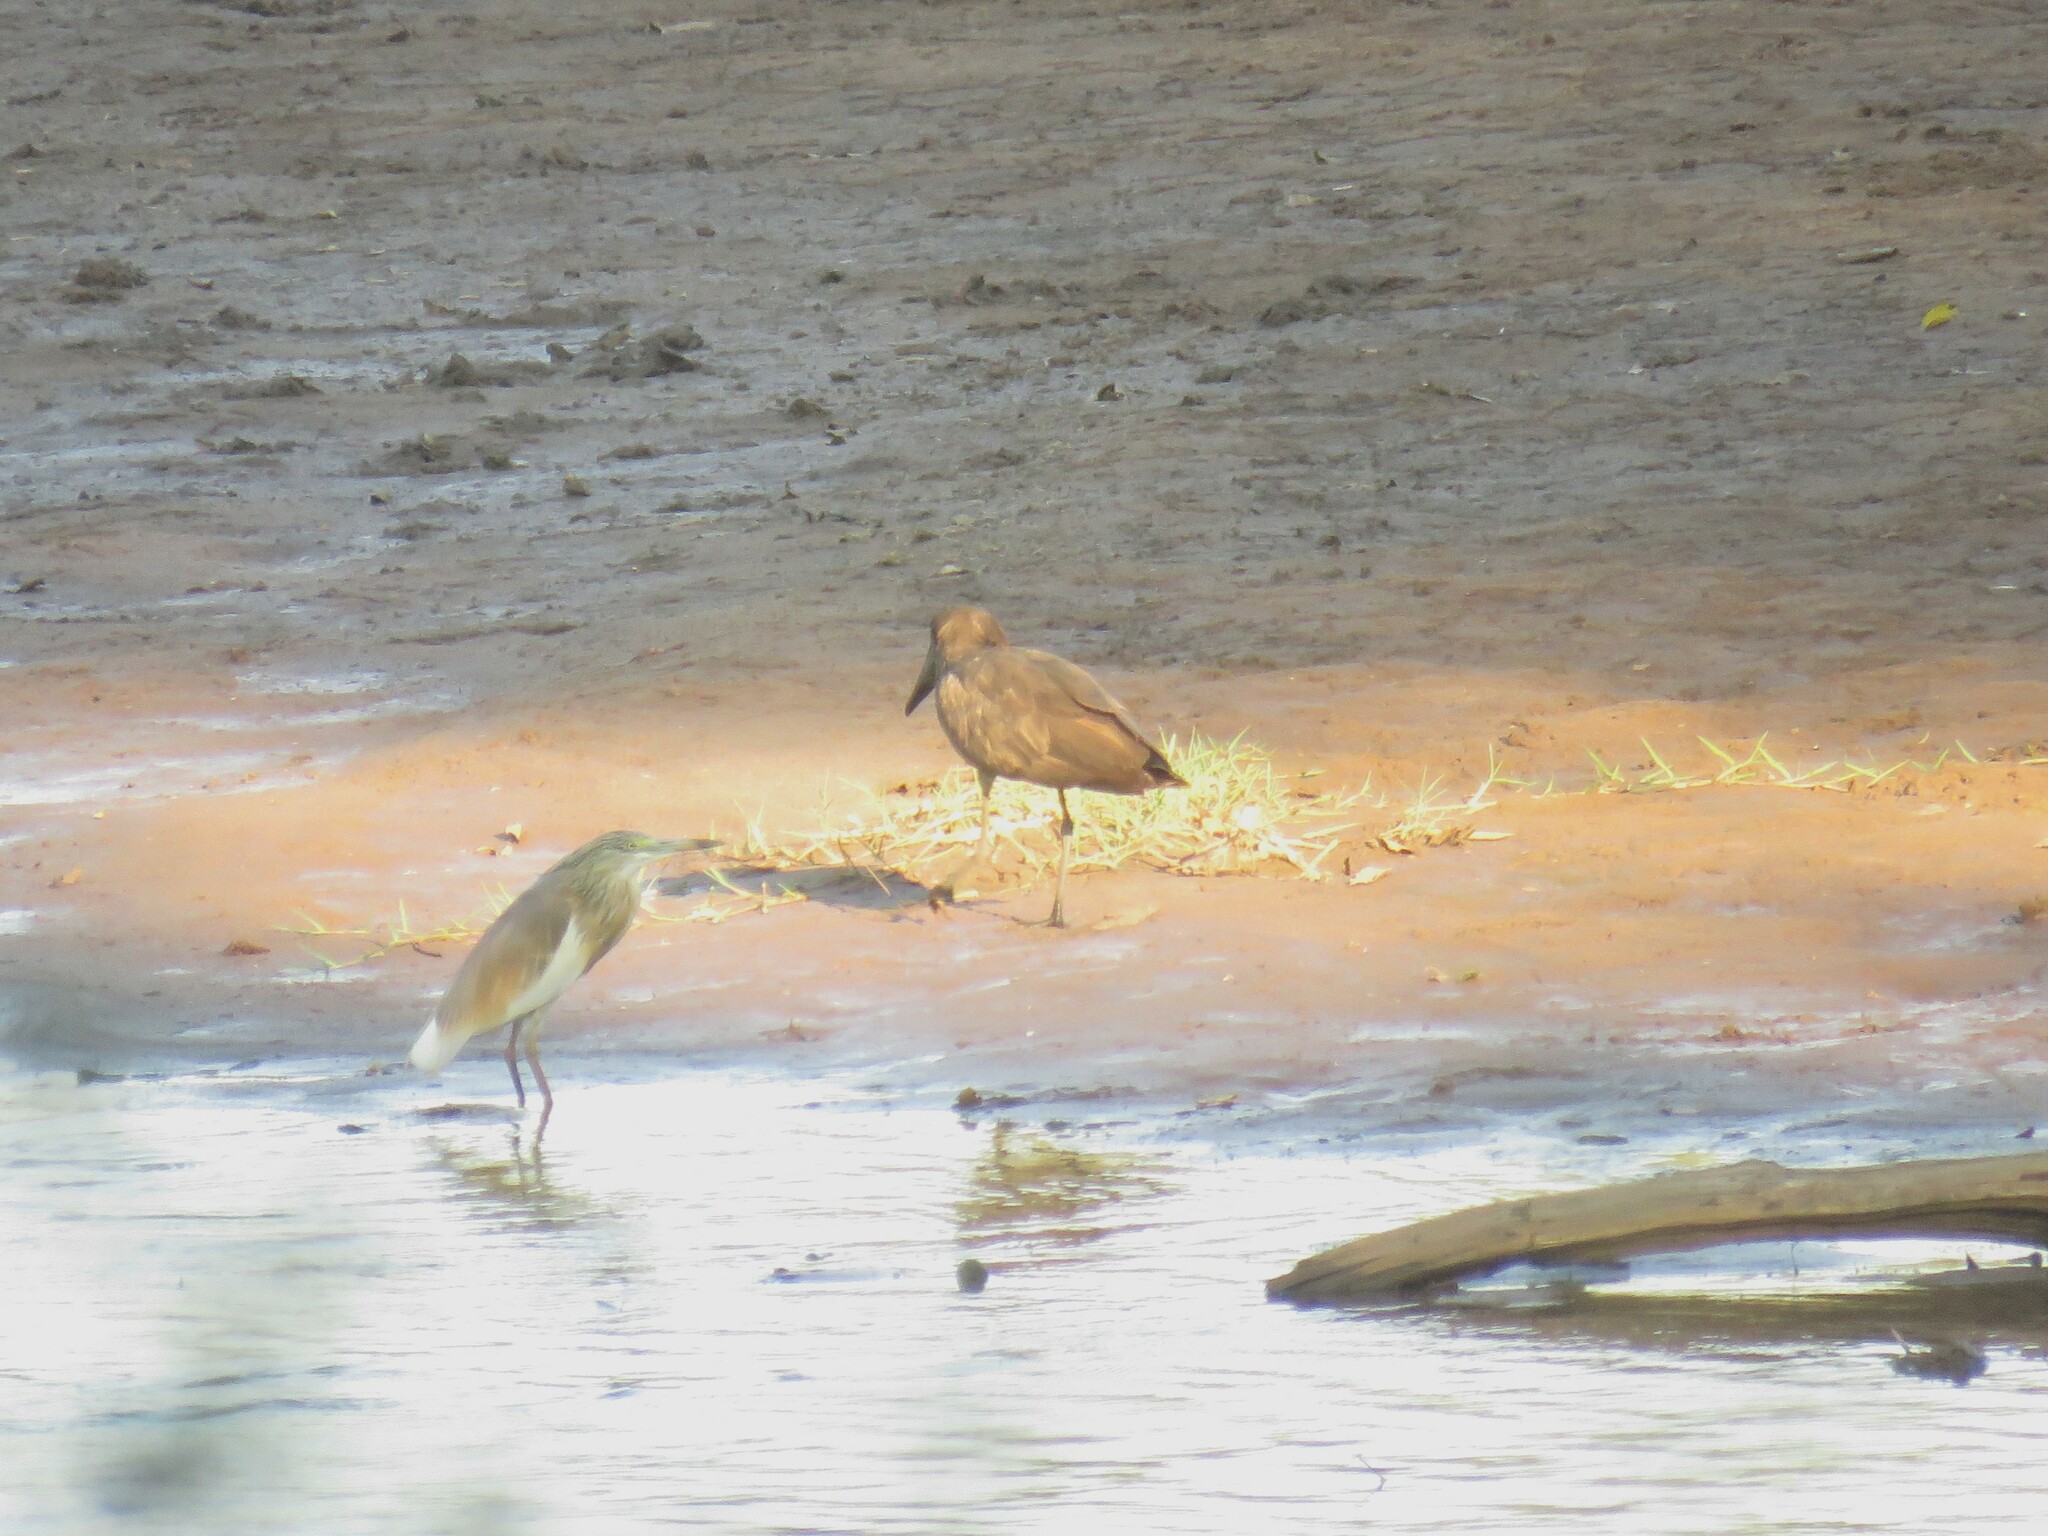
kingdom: Animalia
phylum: Chordata
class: Aves
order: Pelecaniformes
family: Scopidae
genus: Scopus
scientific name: Scopus umbretta
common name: Hamerkop
